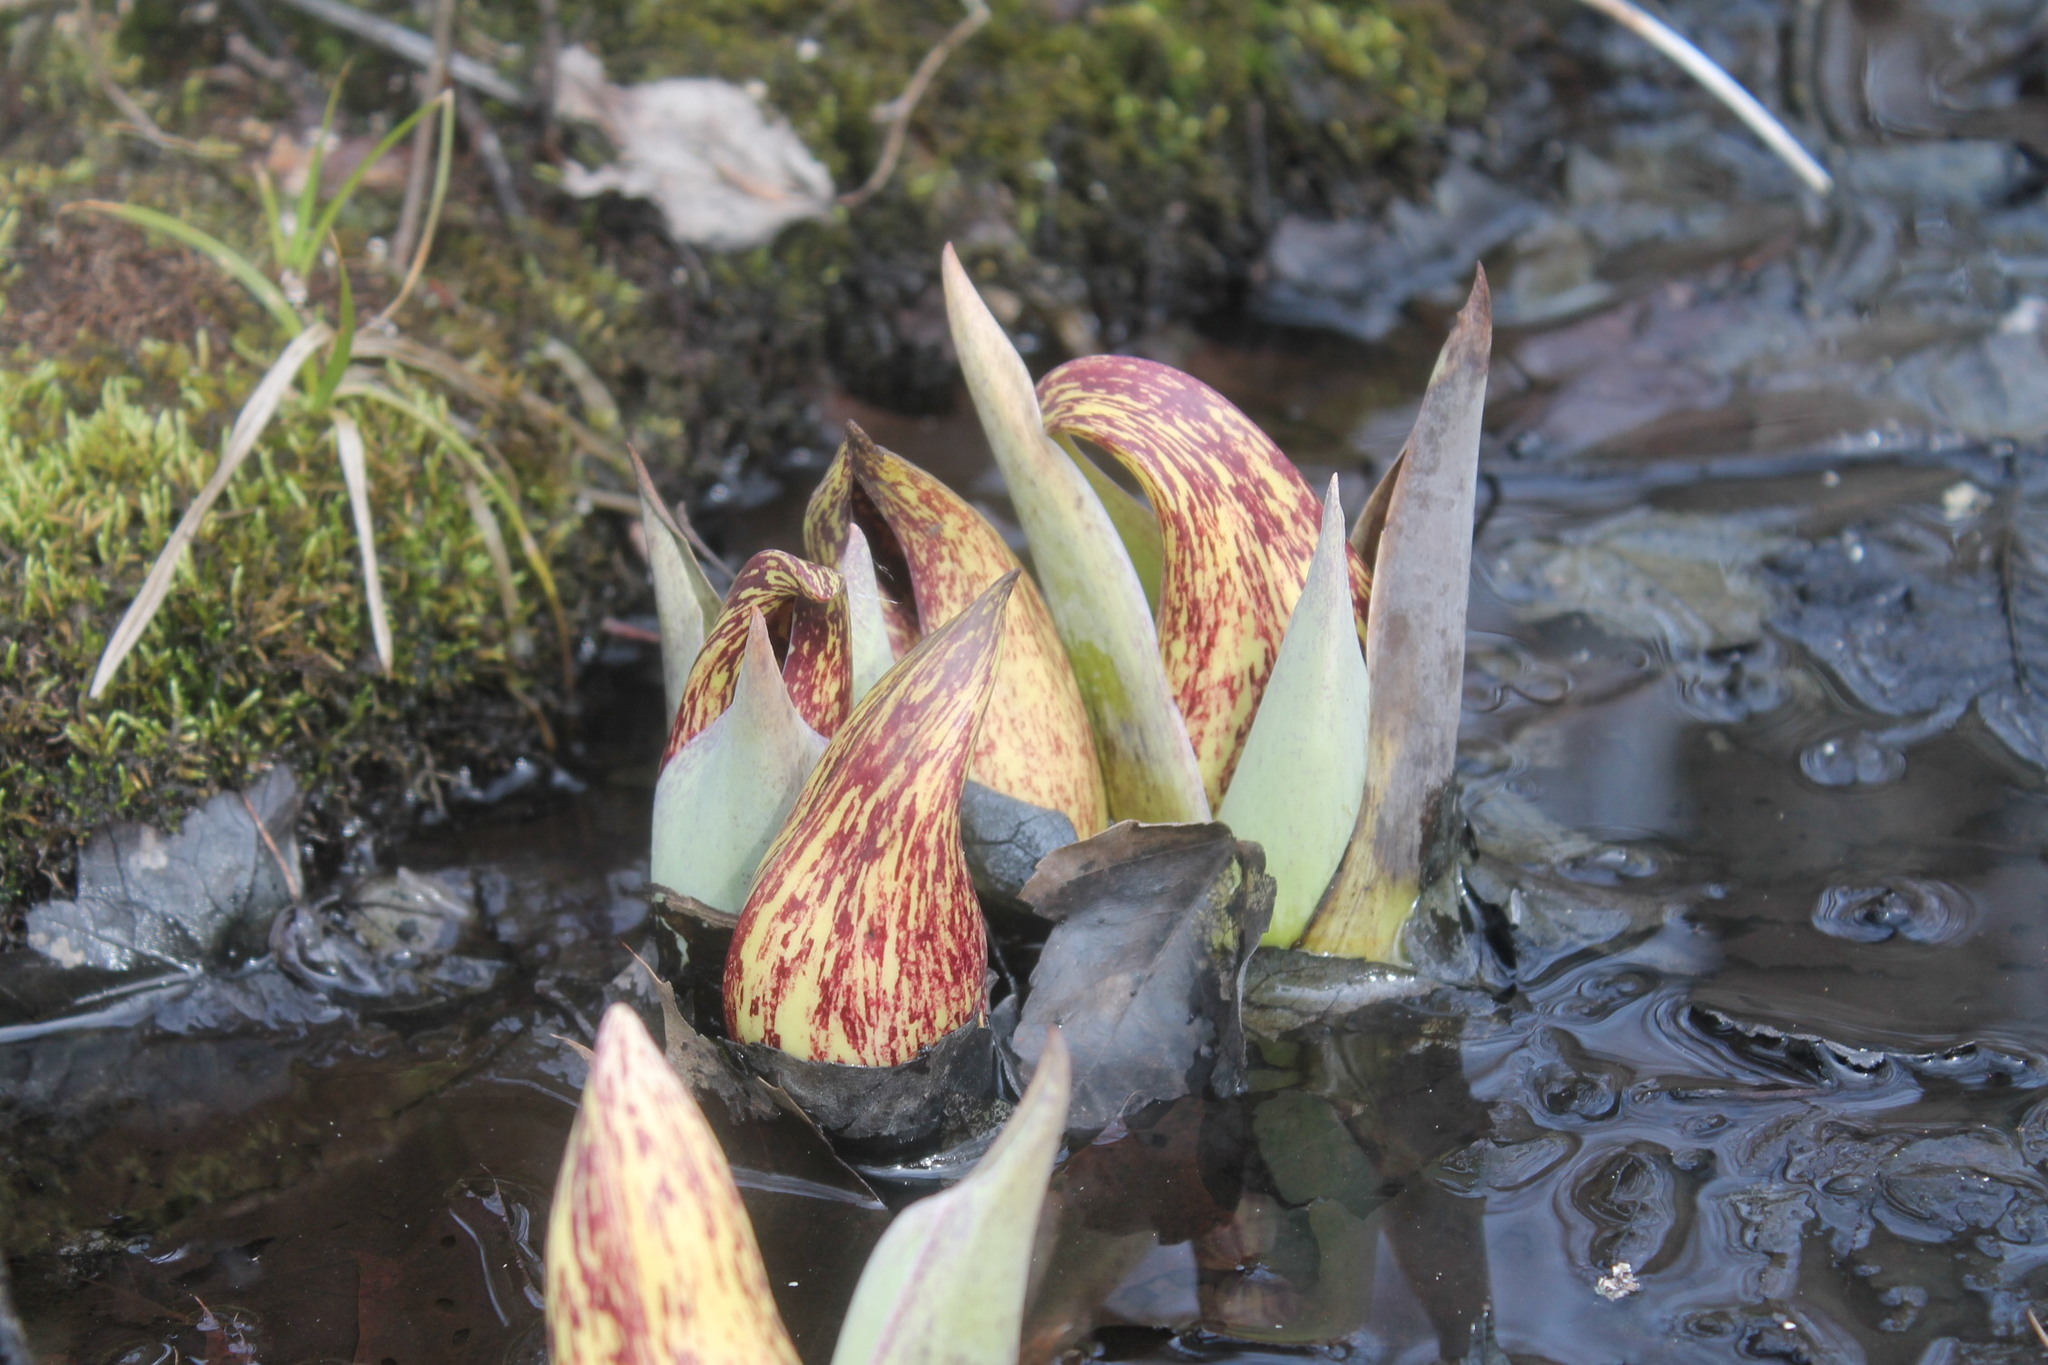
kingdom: Plantae
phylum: Tracheophyta
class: Liliopsida
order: Alismatales
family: Araceae
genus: Symplocarpus
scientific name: Symplocarpus foetidus
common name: Eastern skunk cabbage
